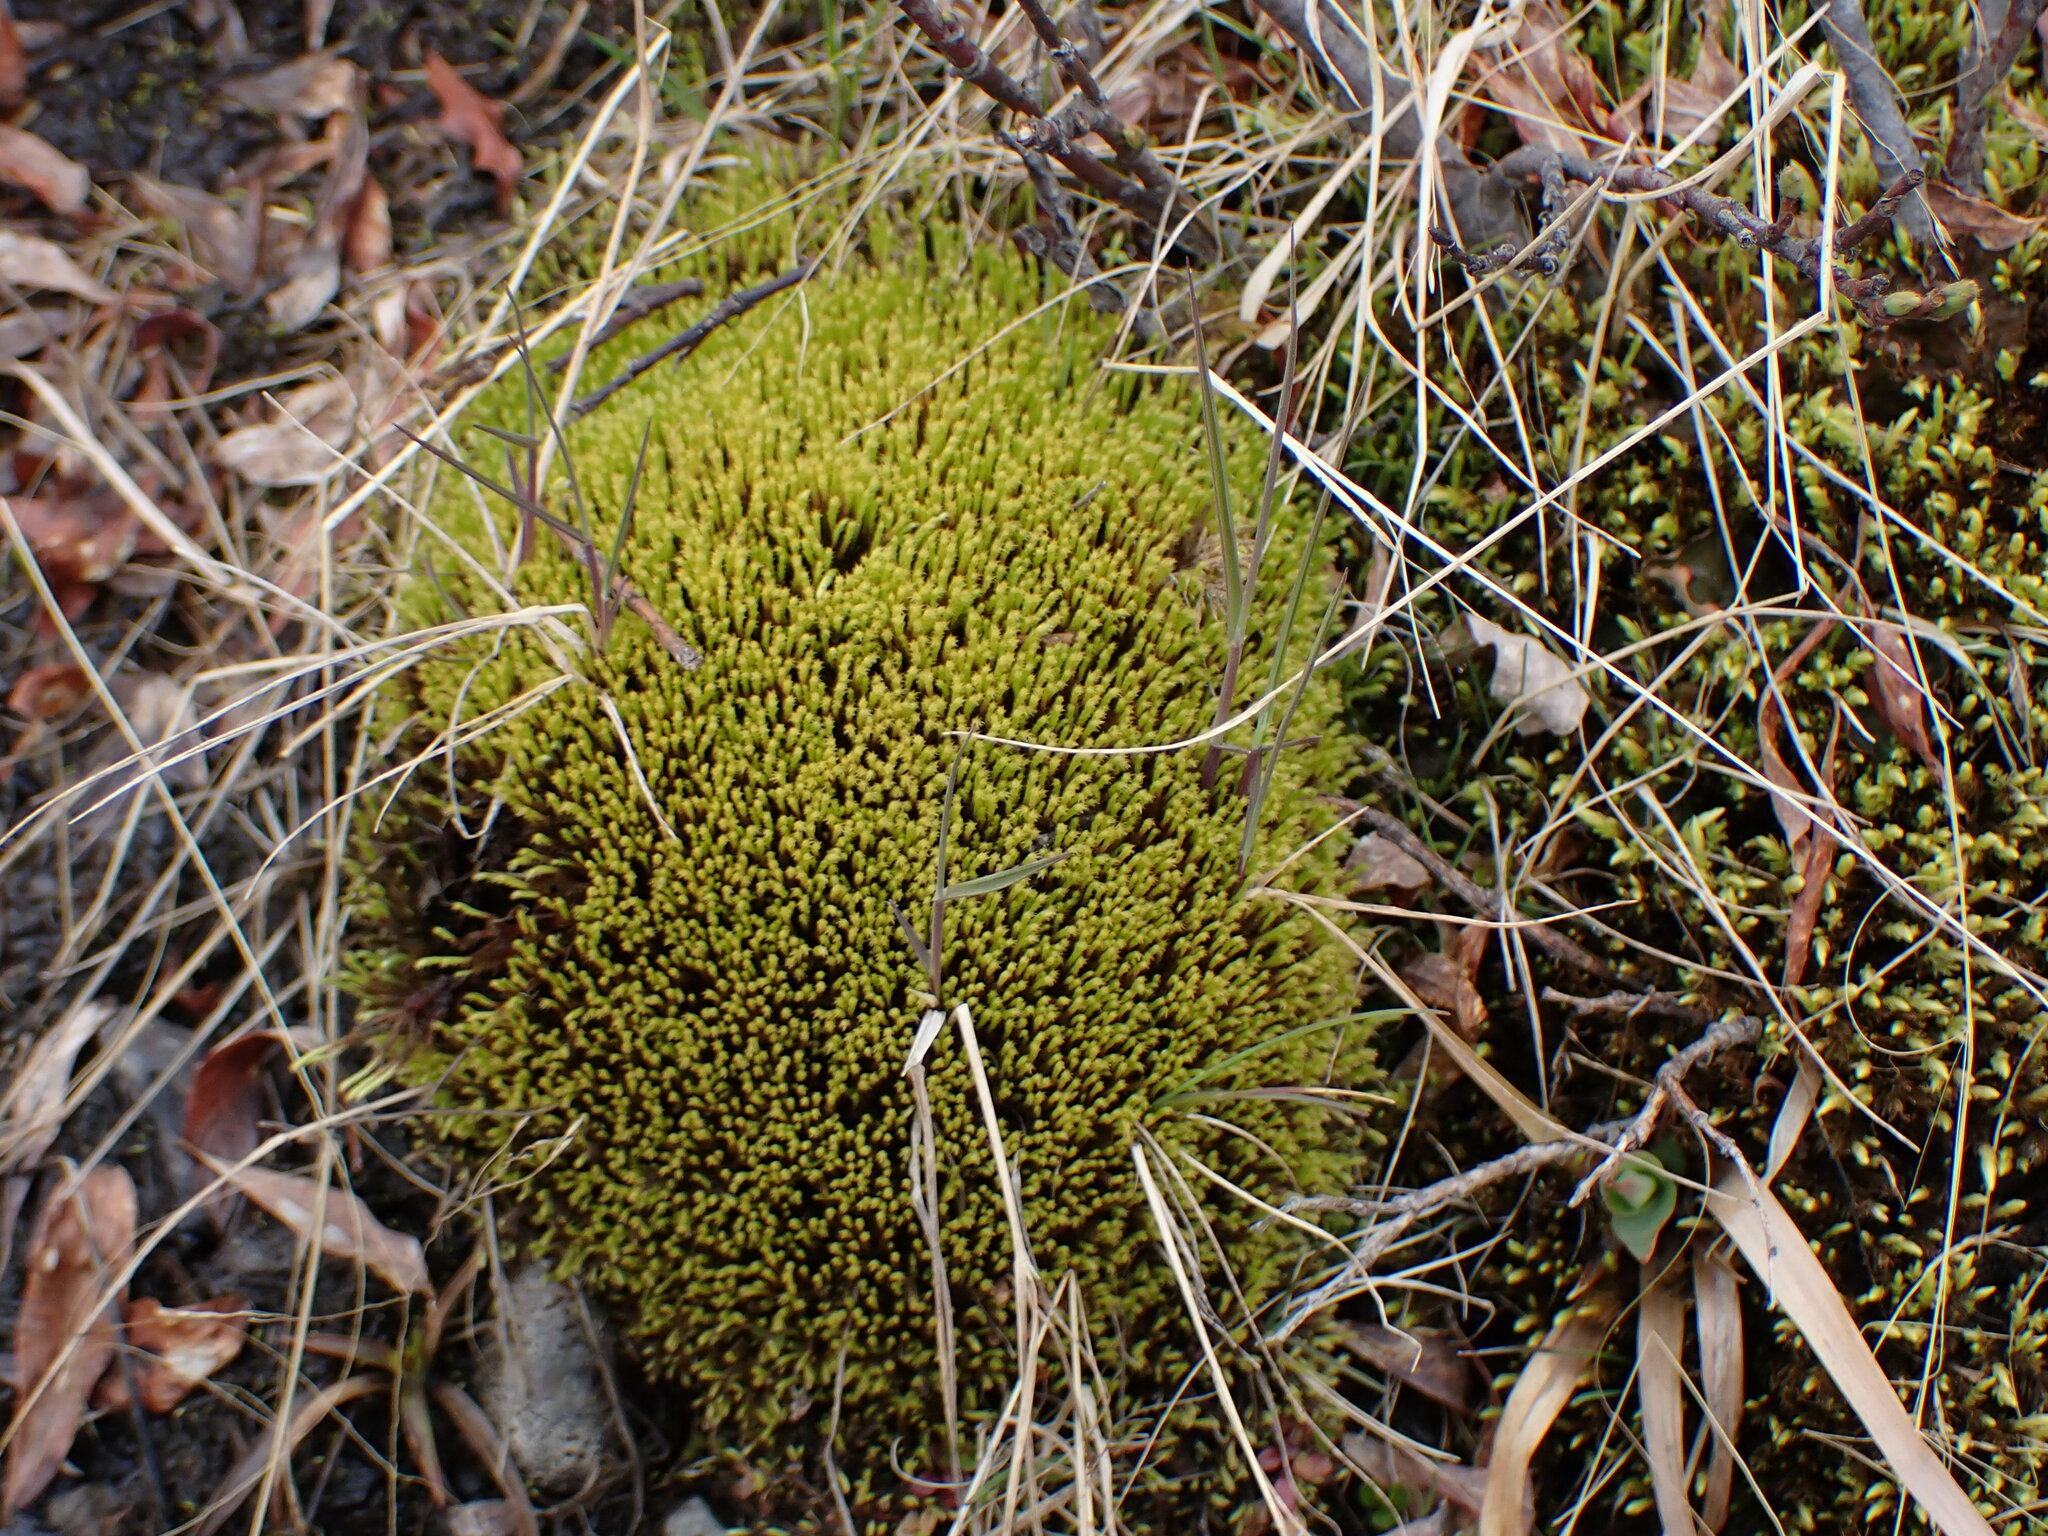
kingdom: Plantae
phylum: Bryophyta
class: Bryopsida
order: Bartramiales
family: Bartramiaceae
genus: Philonotis
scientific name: Philonotis fontana
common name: Fountain apple-moss
